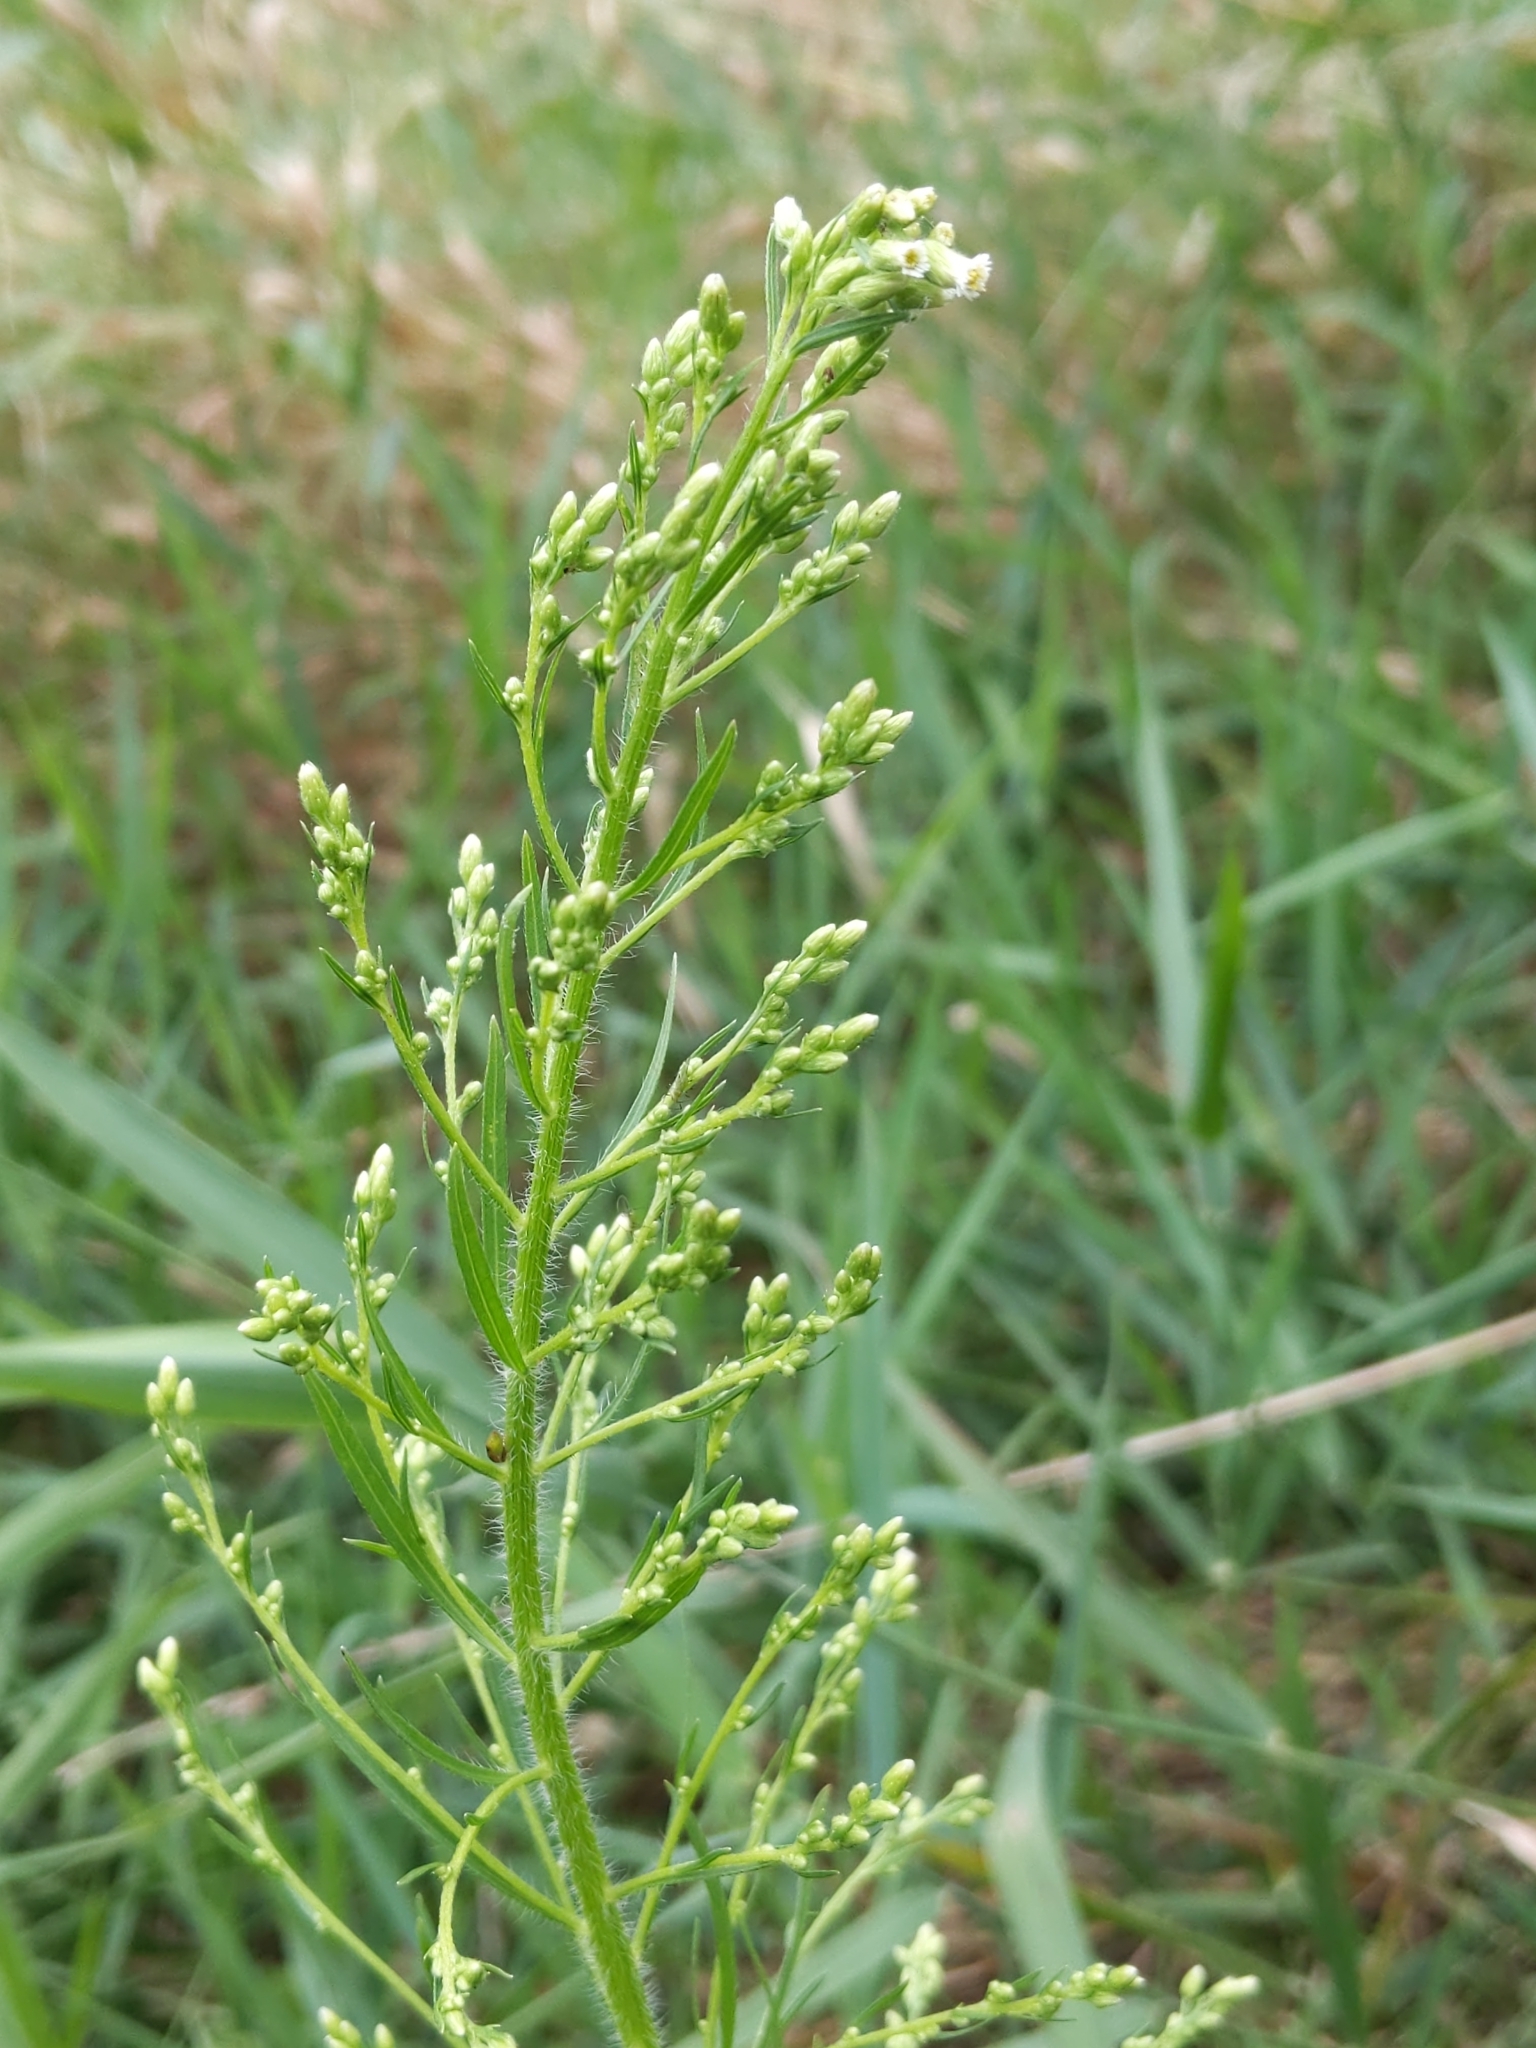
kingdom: Plantae
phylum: Tracheophyta
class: Magnoliopsida
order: Asterales
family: Asteraceae
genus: Erigeron
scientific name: Erigeron canadensis
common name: Canadian fleabane
